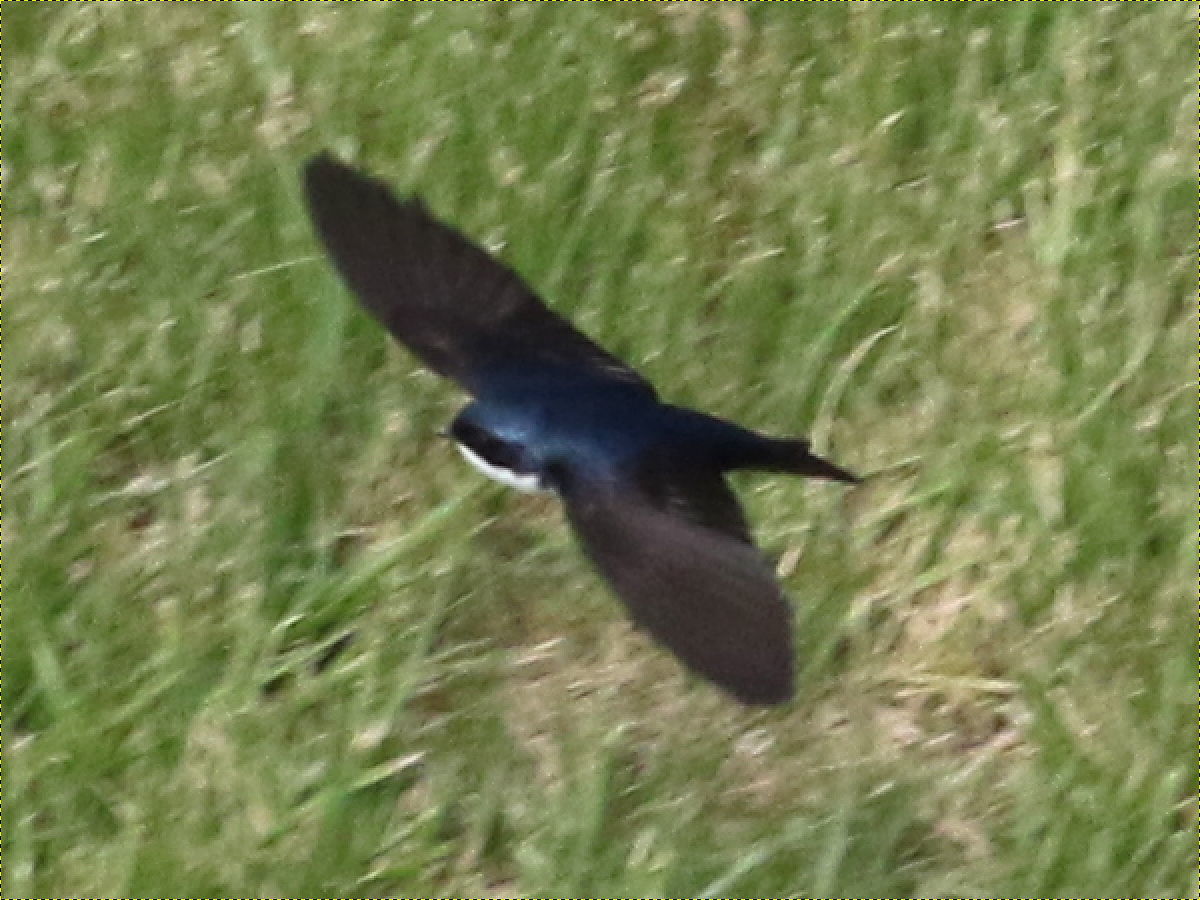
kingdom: Animalia
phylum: Chordata
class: Aves
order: Passeriformes
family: Hirundinidae
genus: Notiochelidon
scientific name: Notiochelidon cyanoleuca
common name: Blue-and-white swallow
